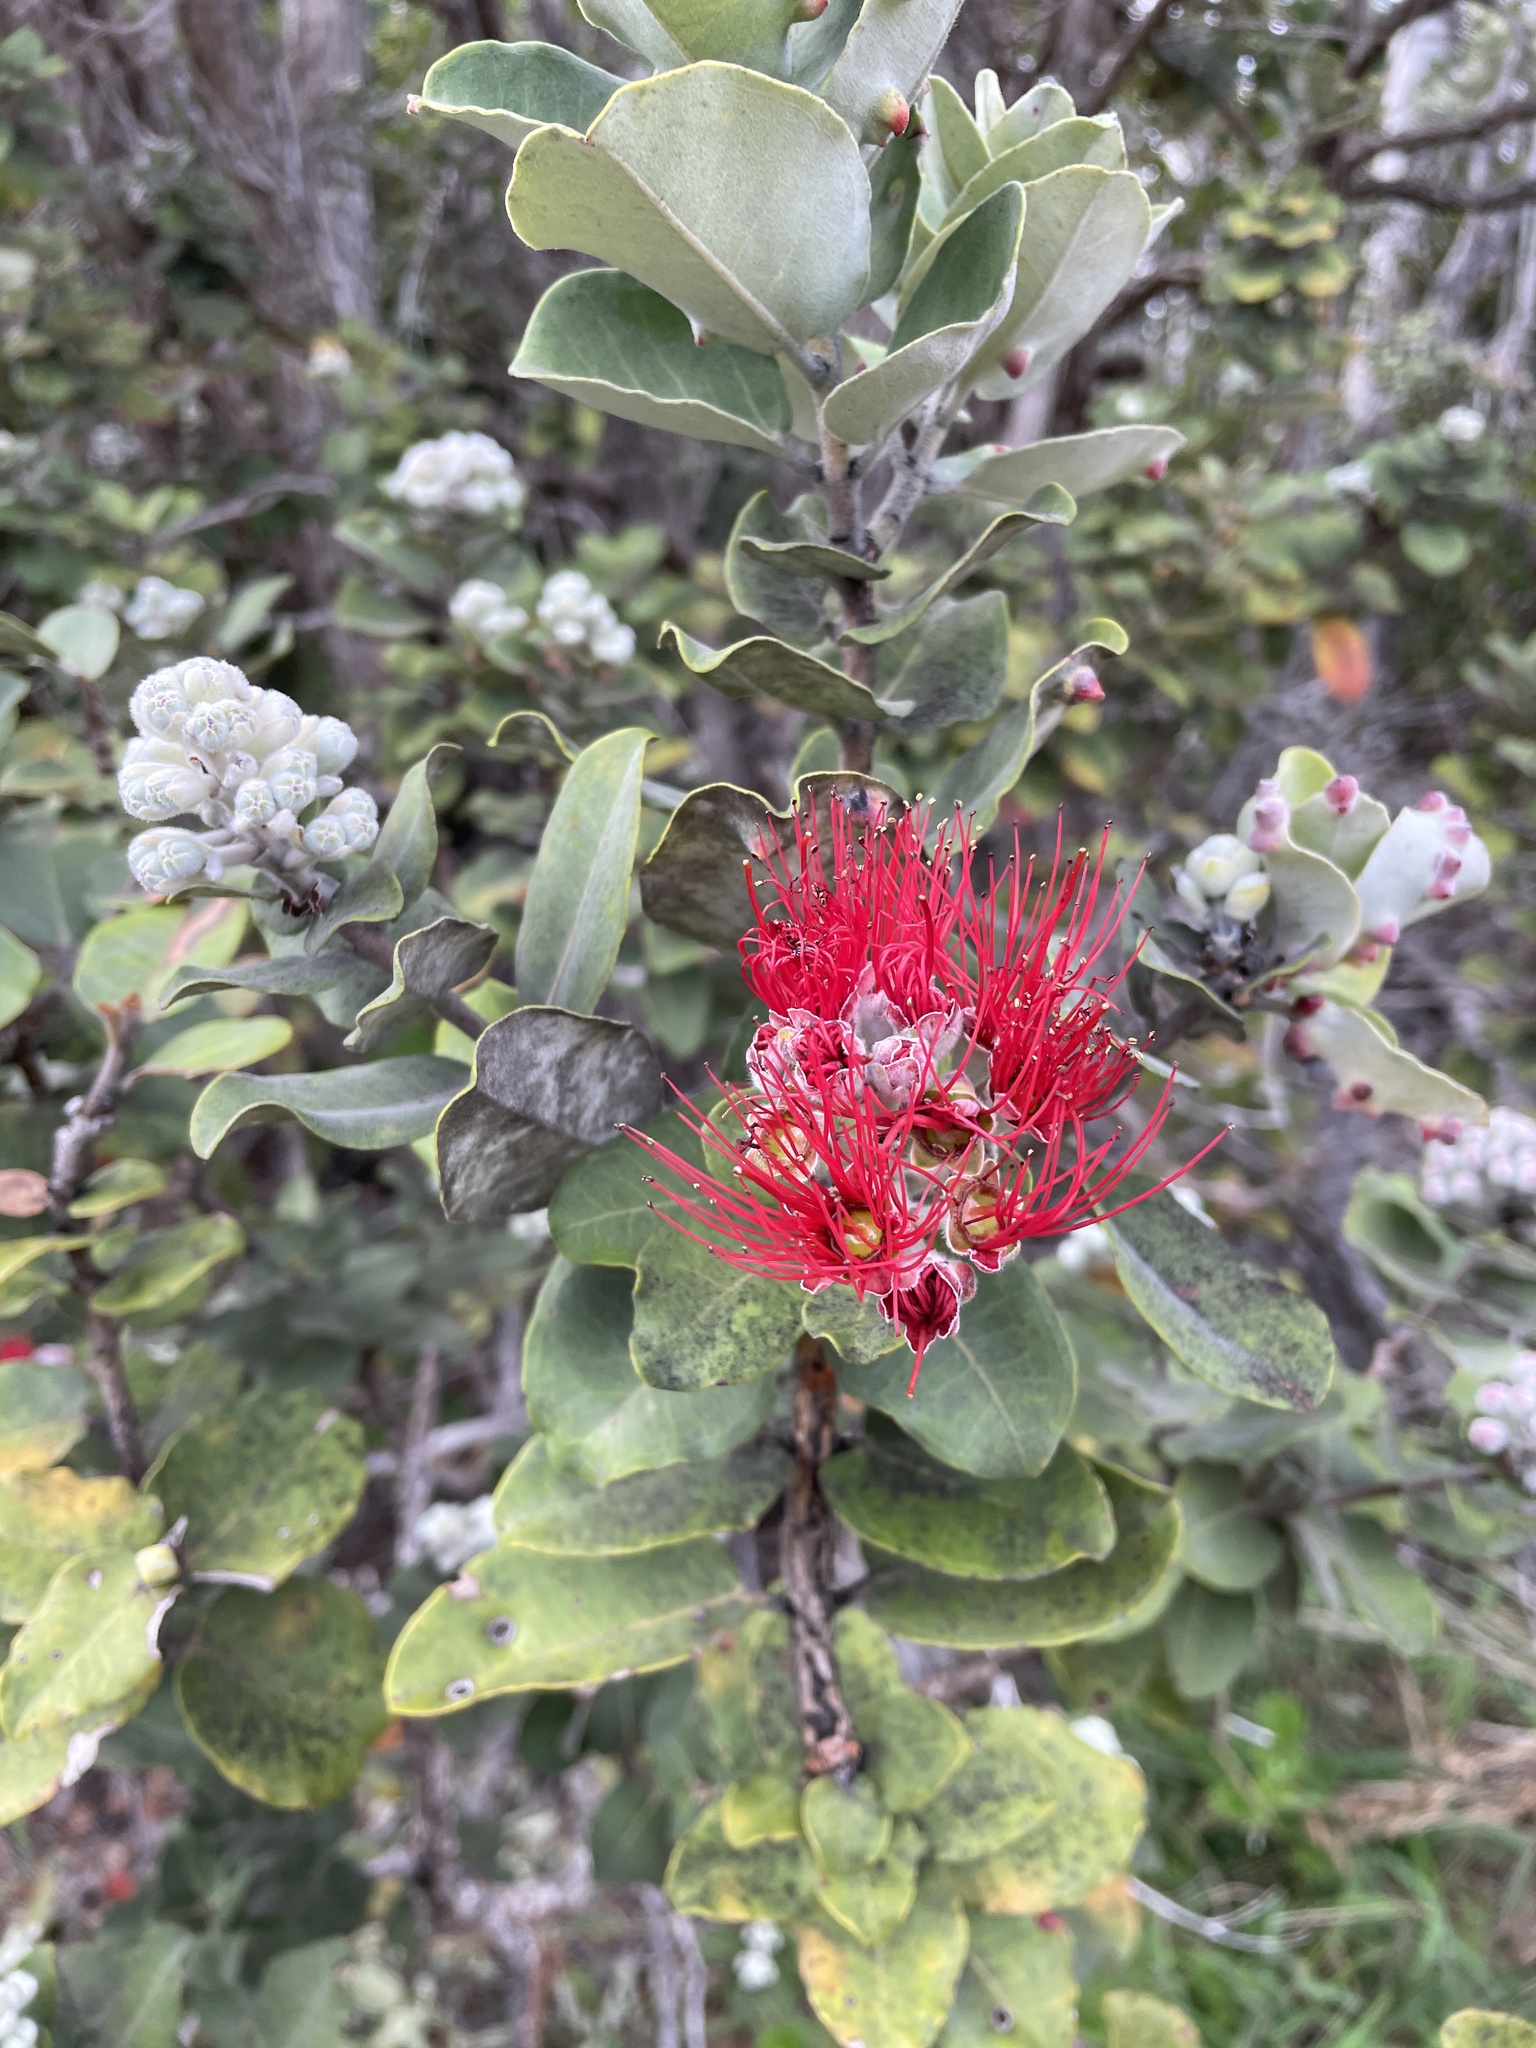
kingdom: Plantae
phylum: Tracheophyta
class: Magnoliopsida
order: Myrtales
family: Myrtaceae
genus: Metrosideros
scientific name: Metrosideros polymorpha
